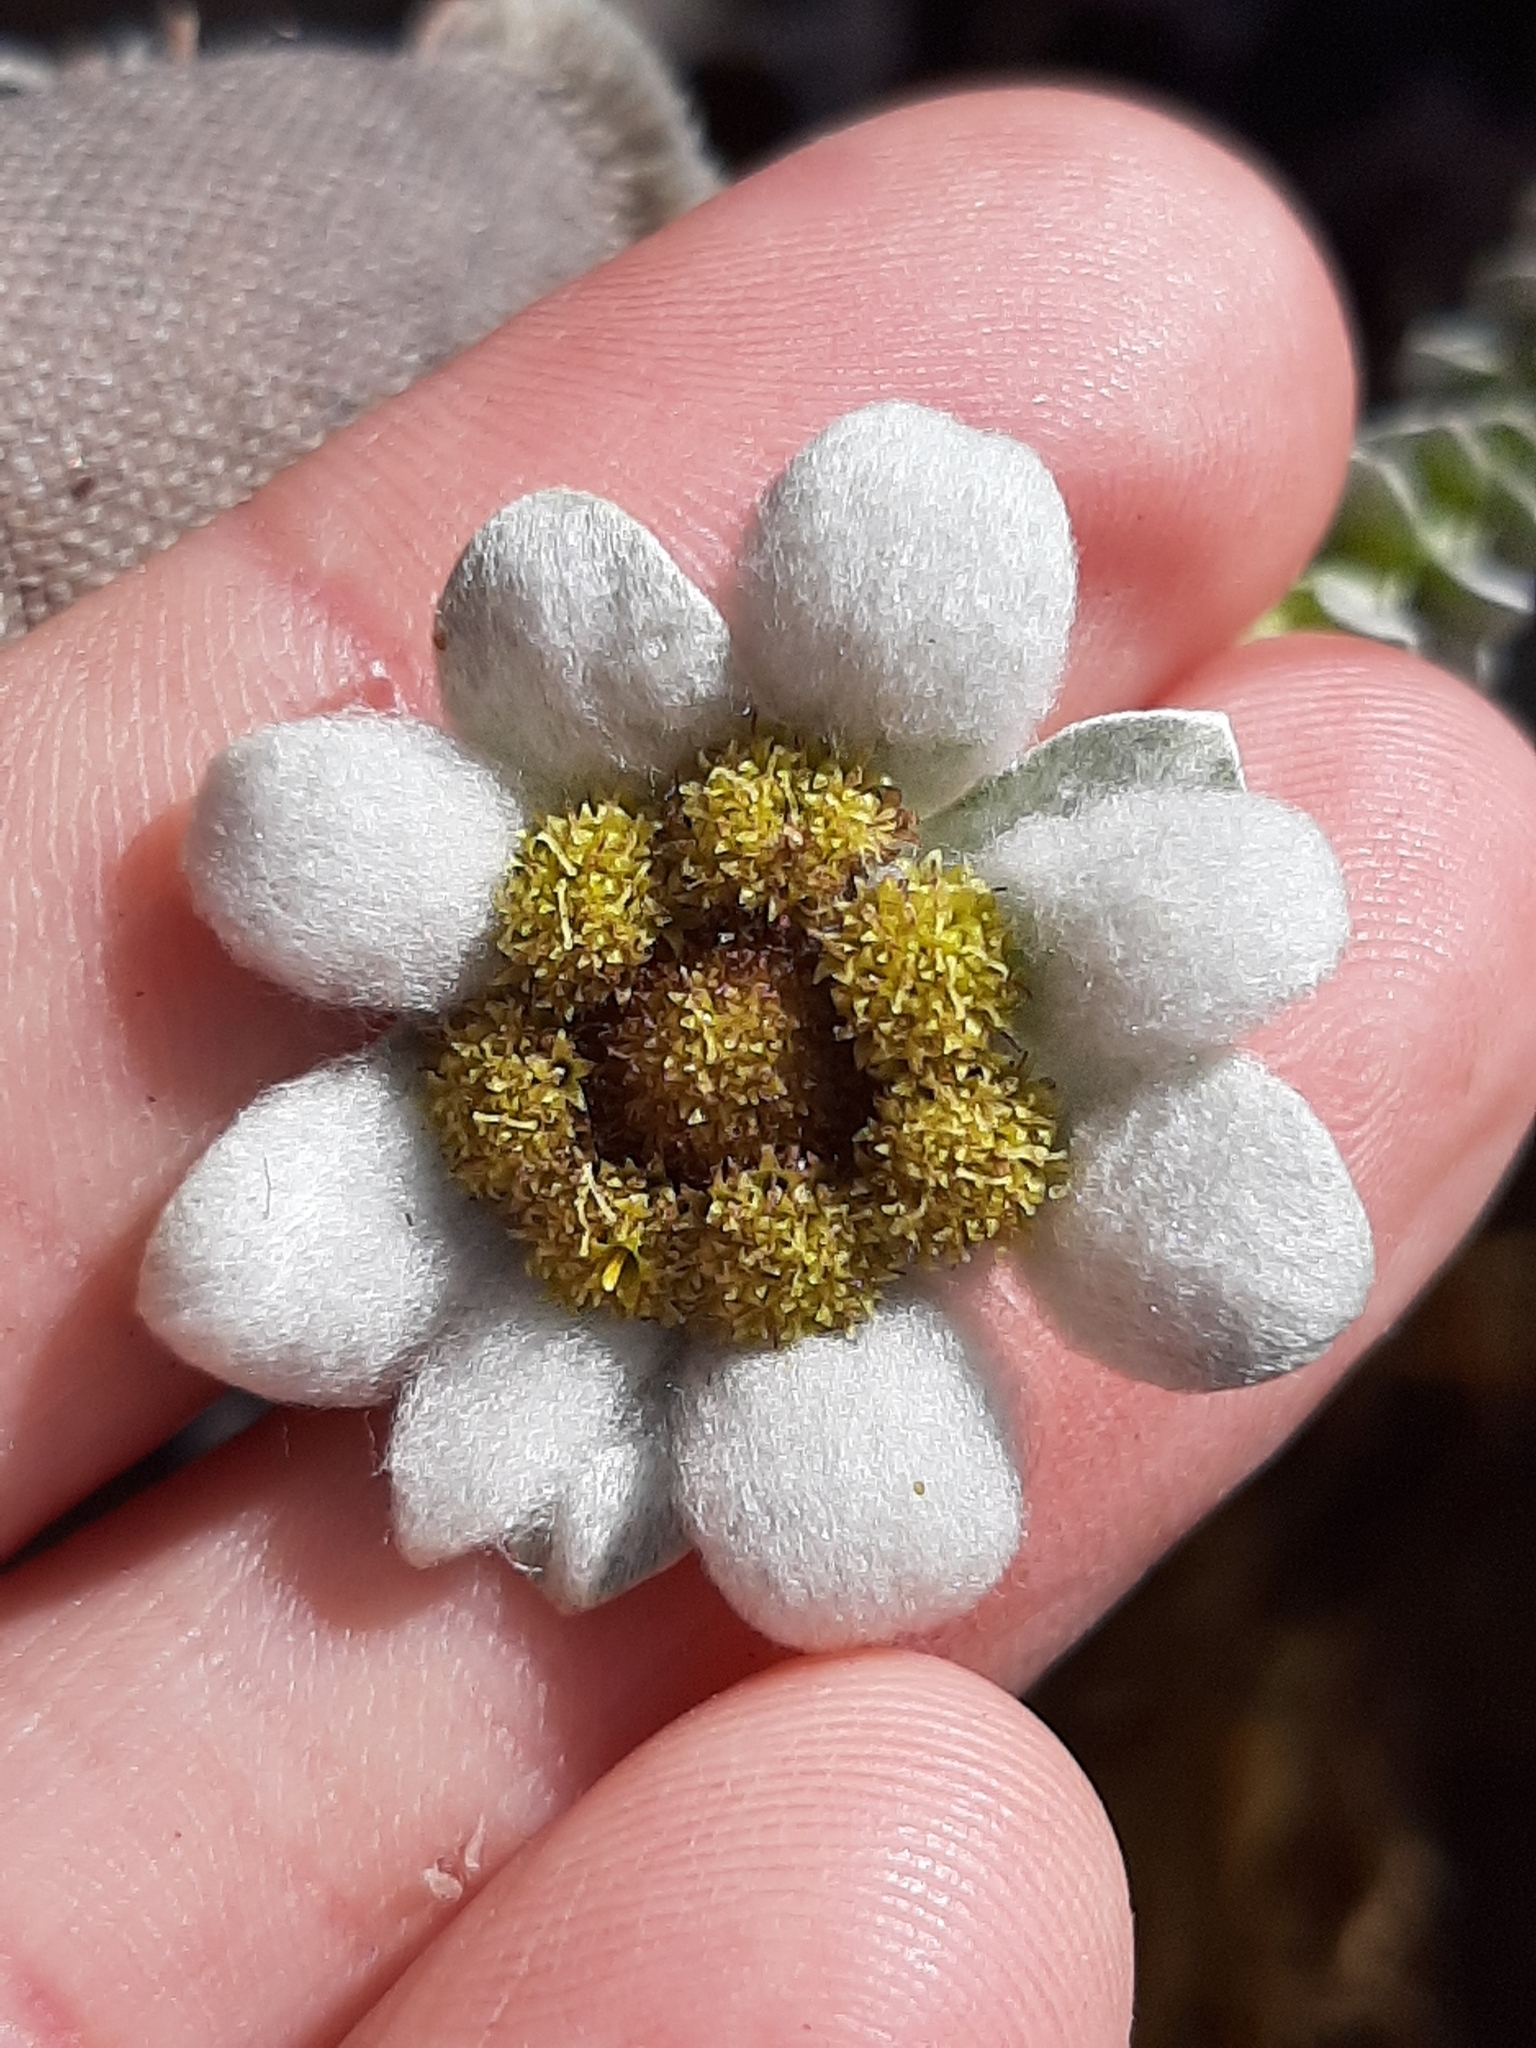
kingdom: Plantae
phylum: Tracheophyta
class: Magnoliopsida
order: Asterales
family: Asteraceae
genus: Leucogenes
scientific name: Leucogenes grandiceps
